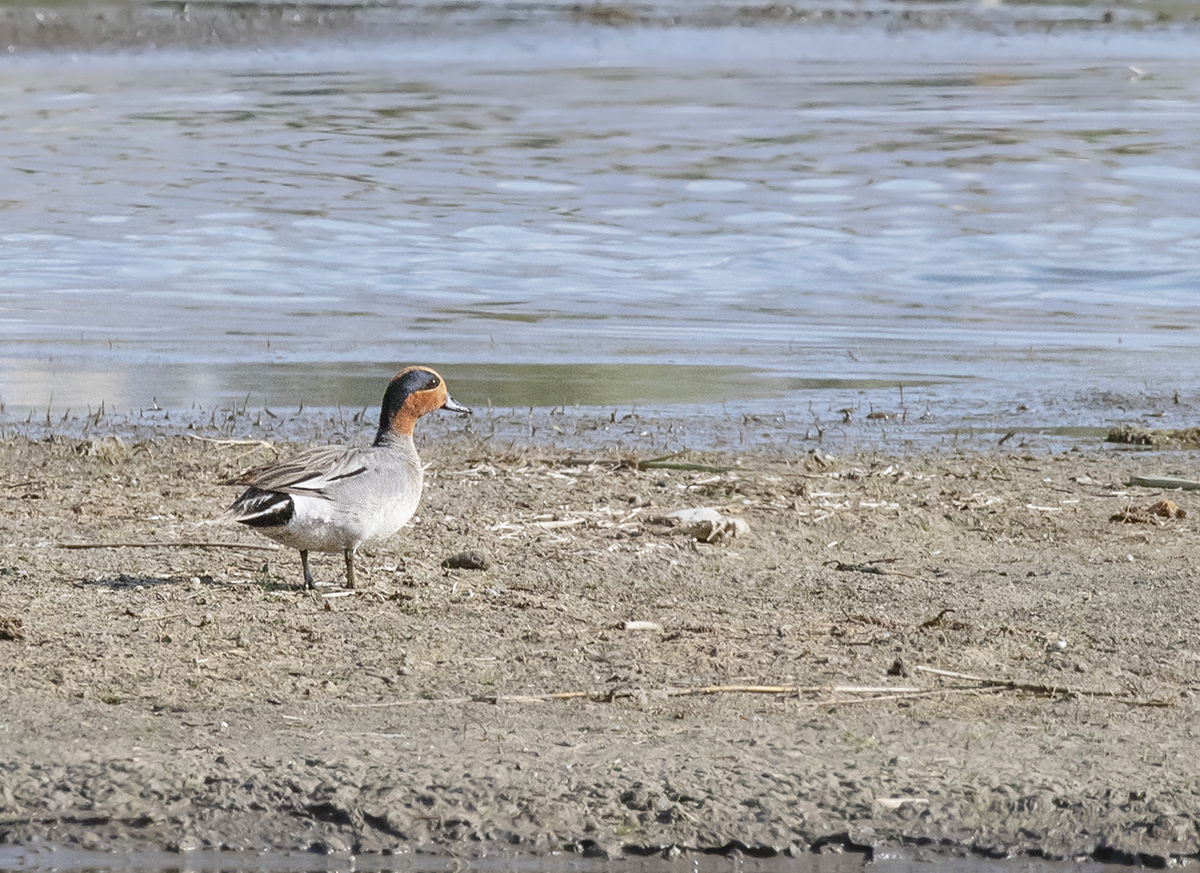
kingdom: Animalia
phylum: Chordata
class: Aves
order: Anseriformes
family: Anatidae
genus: Anas
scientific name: Anas crecca
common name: Eurasian teal
